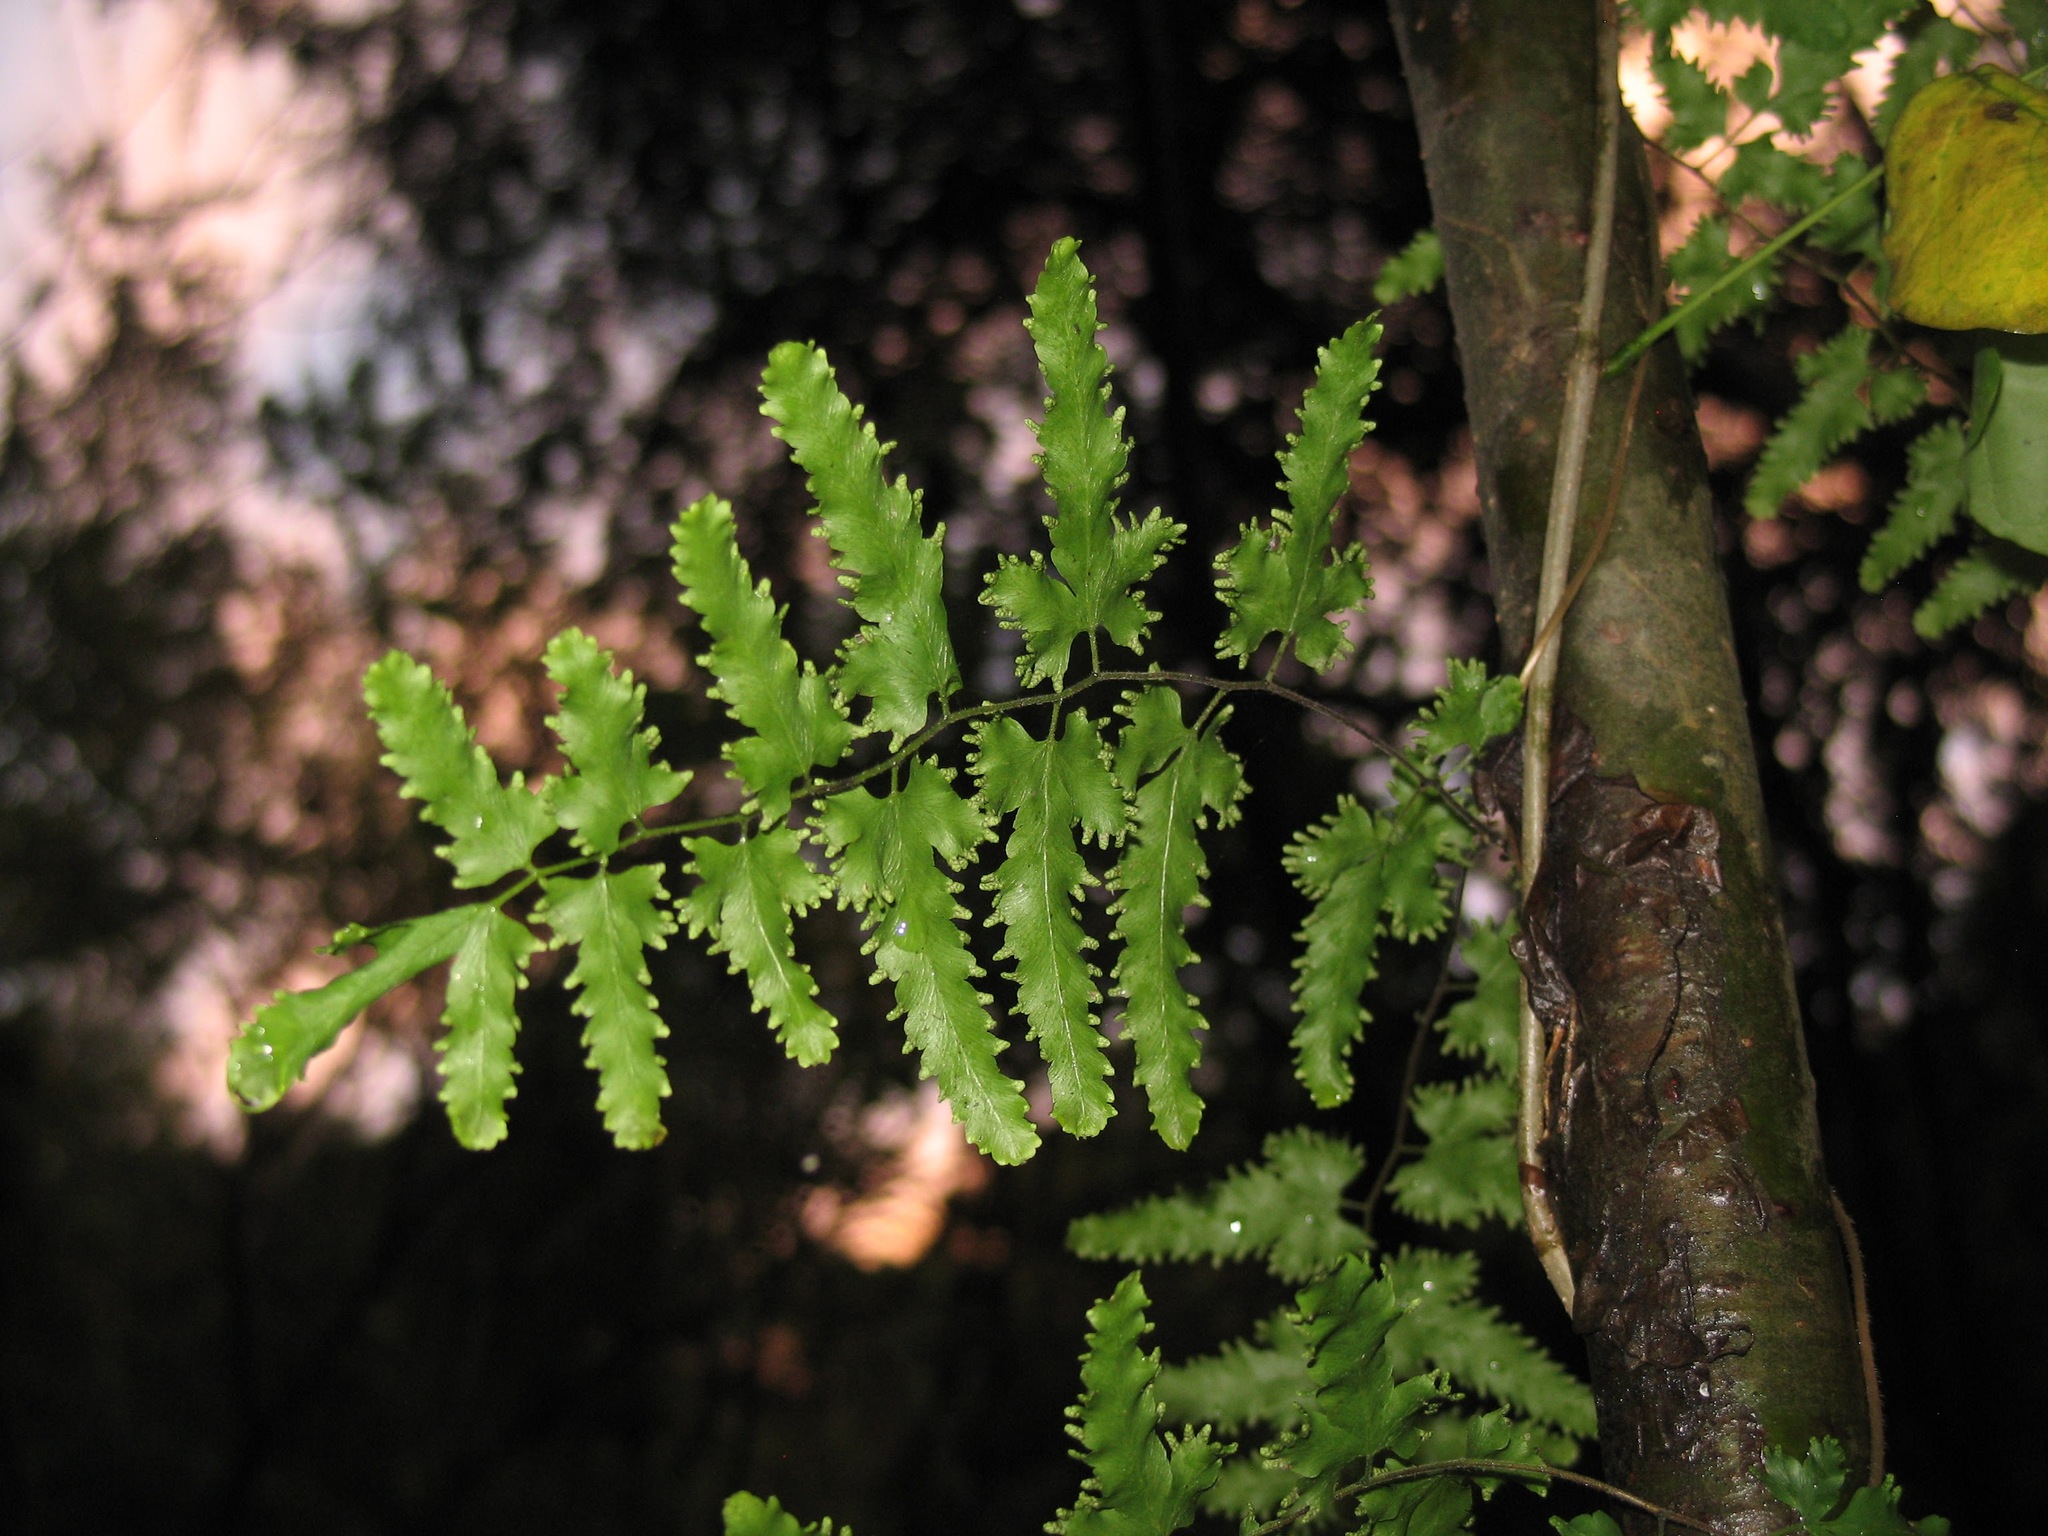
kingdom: Plantae
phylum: Tracheophyta
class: Polypodiopsida
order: Schizaeales
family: Lygodiaceae
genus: Lygodium
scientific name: Lygodium venustum
